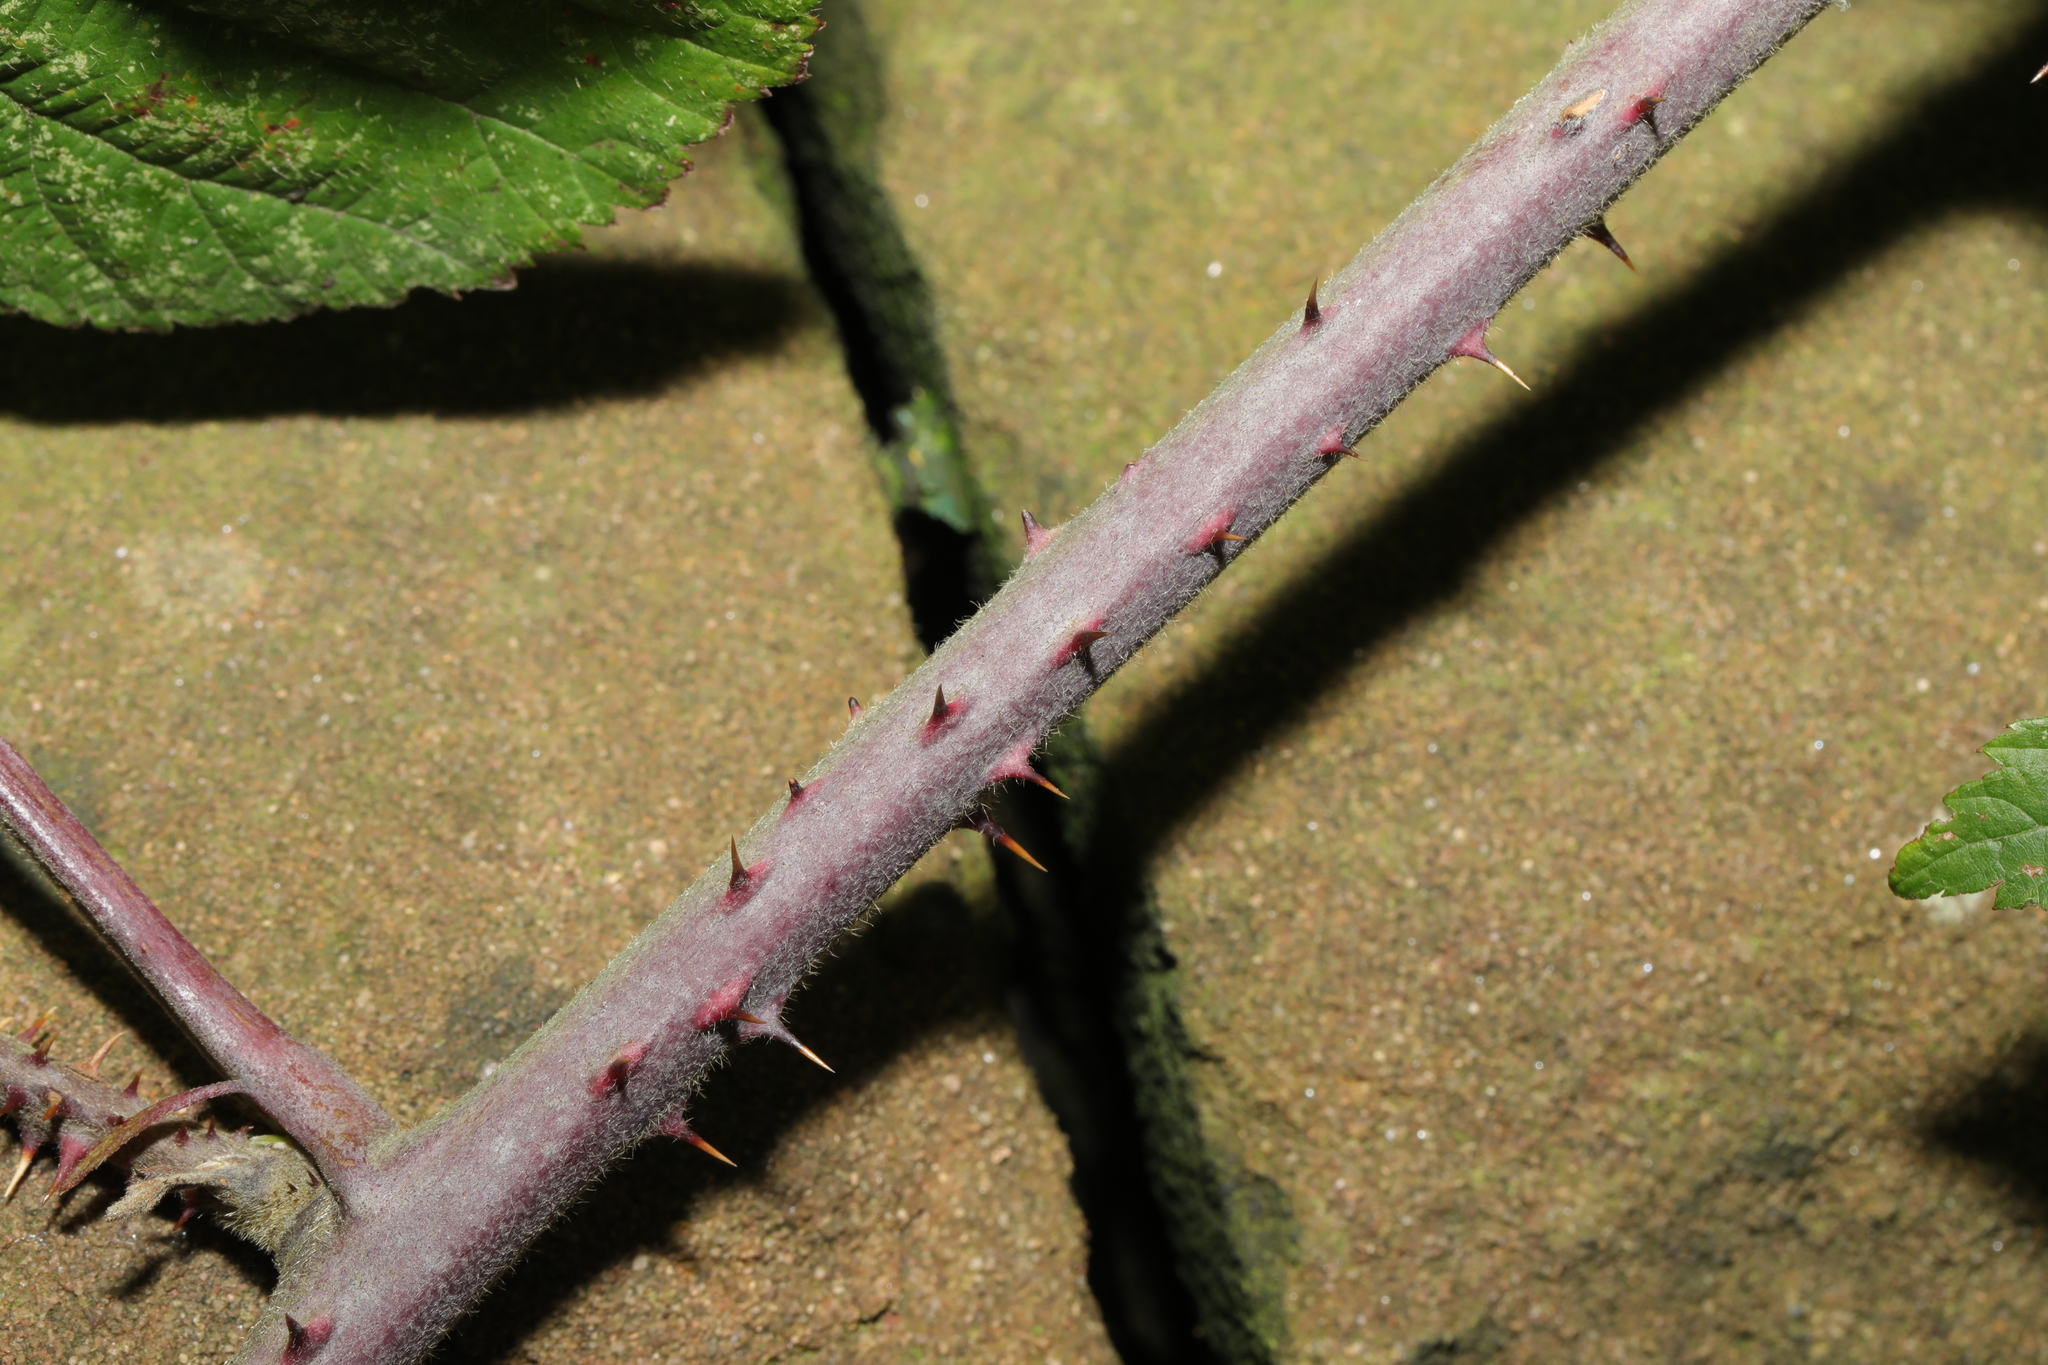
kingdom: Plantae
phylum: Tracheophyta
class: Magnoliopsida
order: Rosales
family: Rosaceae
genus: Rubus
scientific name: Rubus vestitus
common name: European blackberry
